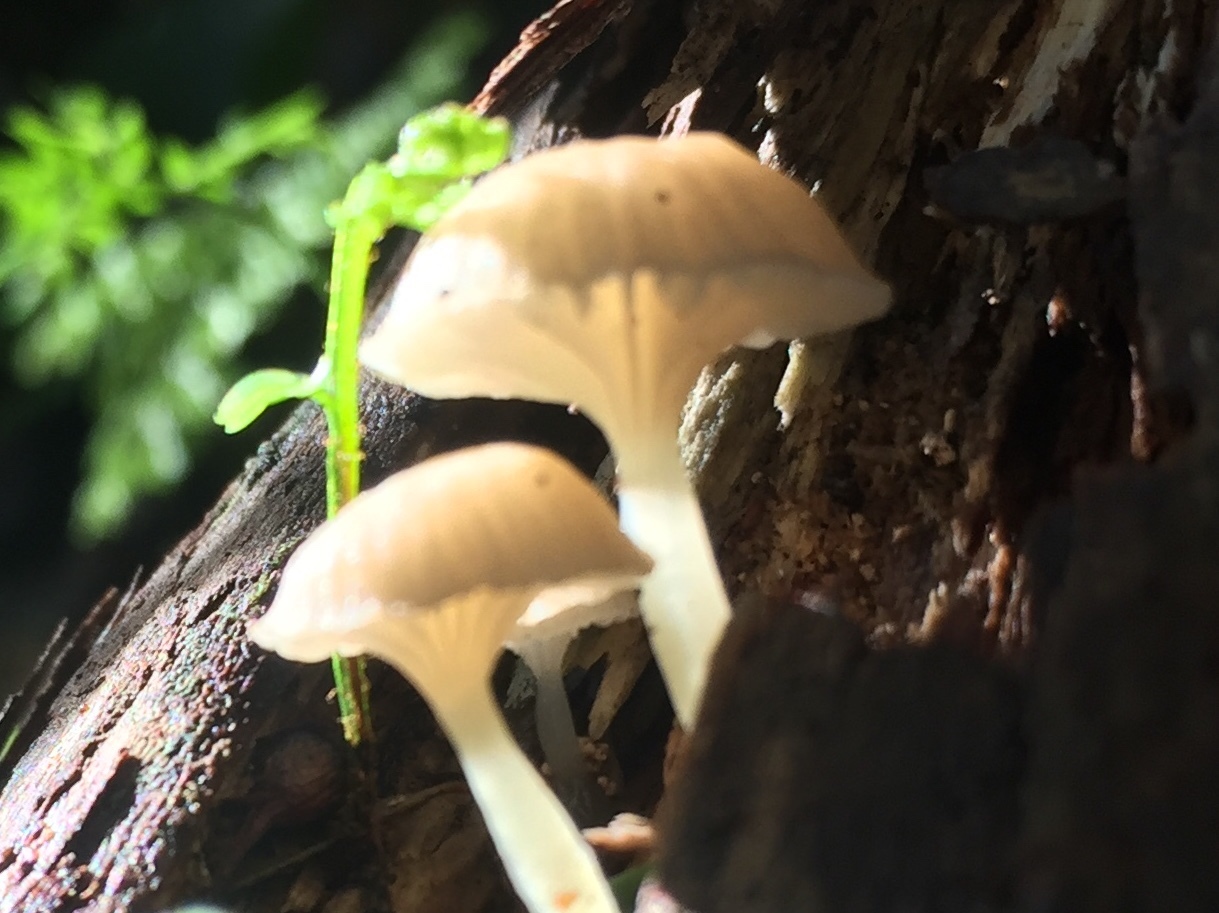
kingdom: Fungi
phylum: Basidiomycota
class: Agaricomycetes
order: Agaricales
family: Mycenaceae
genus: Roridomyces
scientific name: Roridomyces austrororidus
